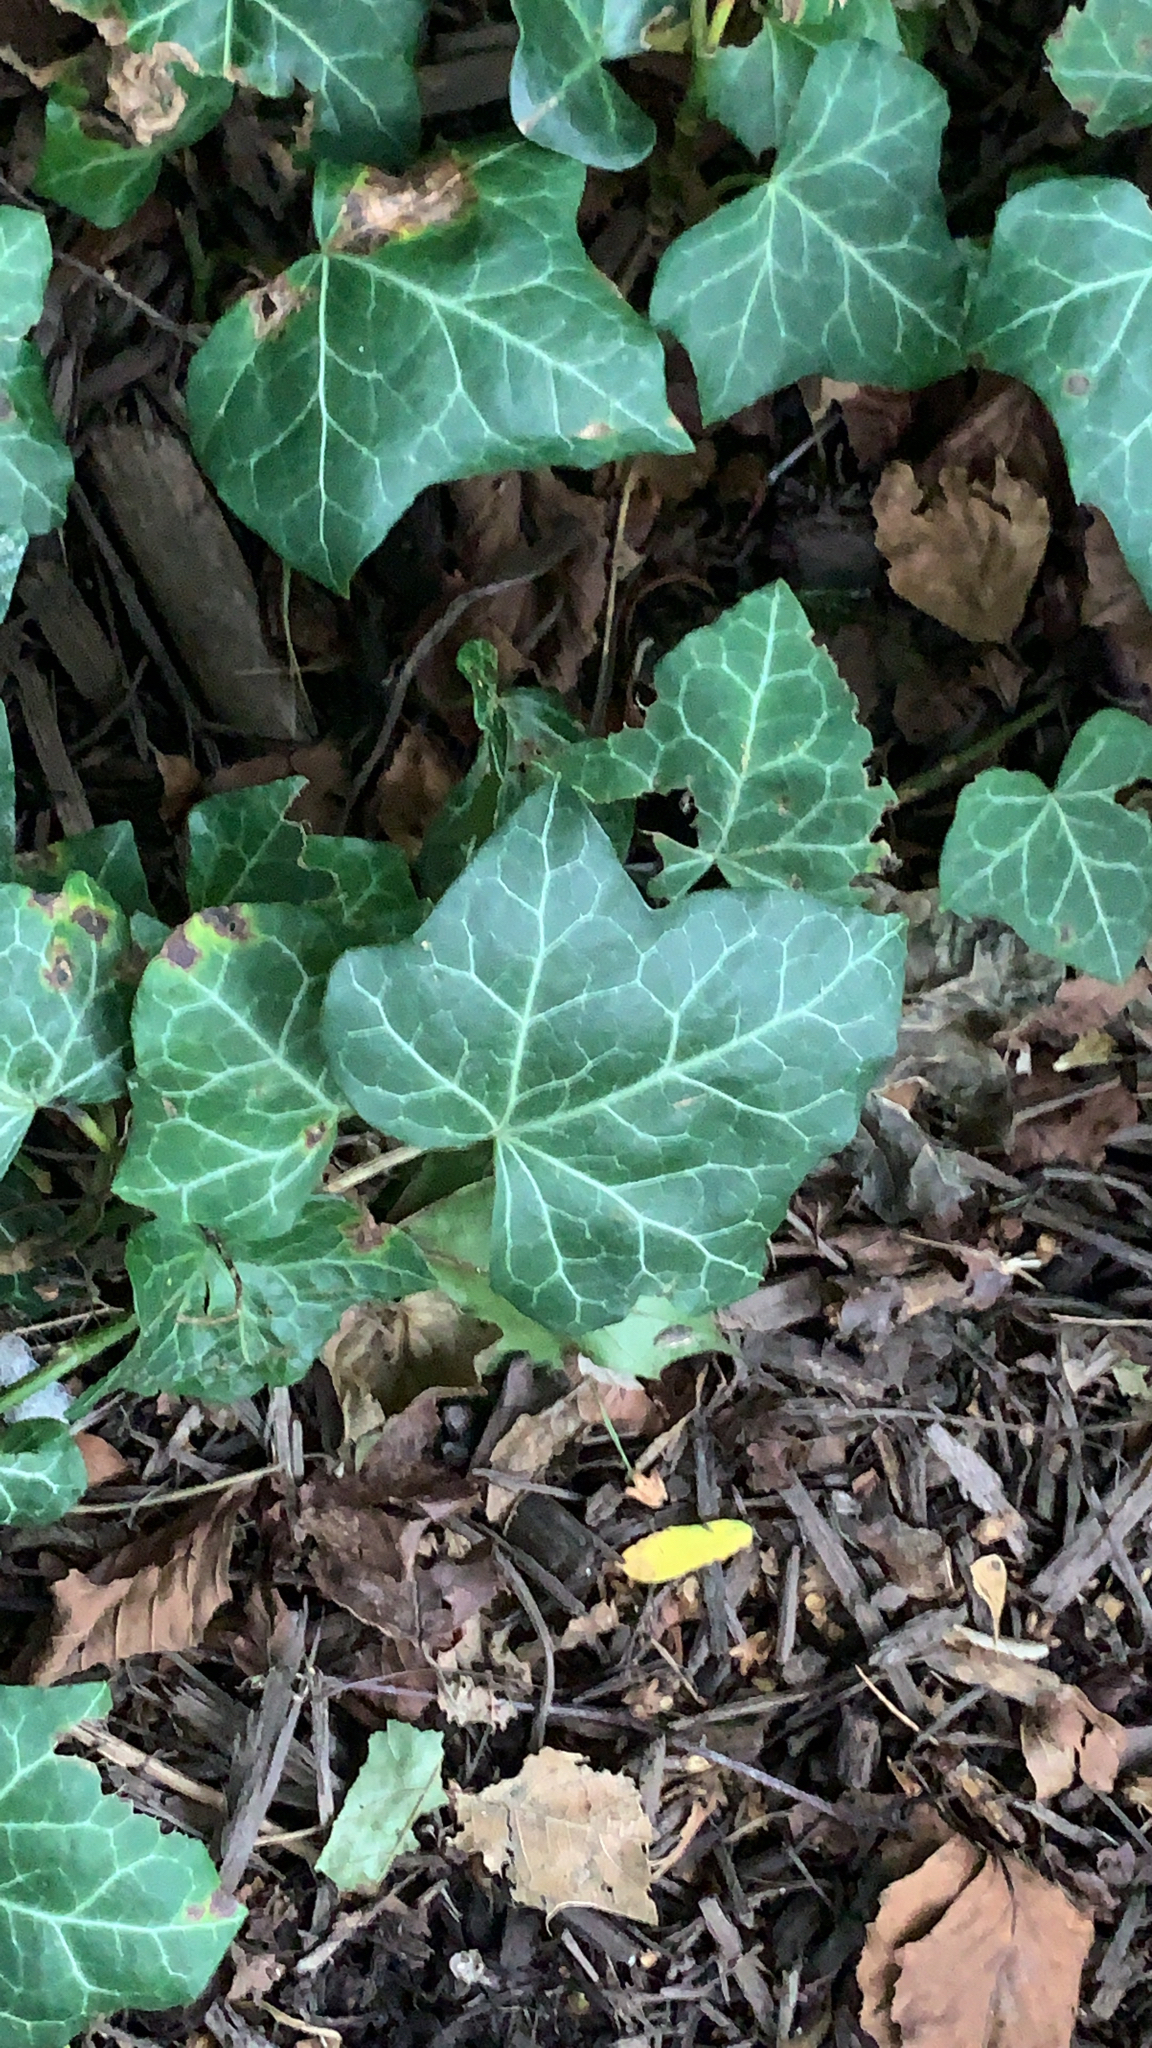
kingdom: Plantae
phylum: Tracheophyta
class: Magnoliopsida
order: Apiales
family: Araliaceae
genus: Hedera
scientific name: Hedera helix
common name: Ivy
